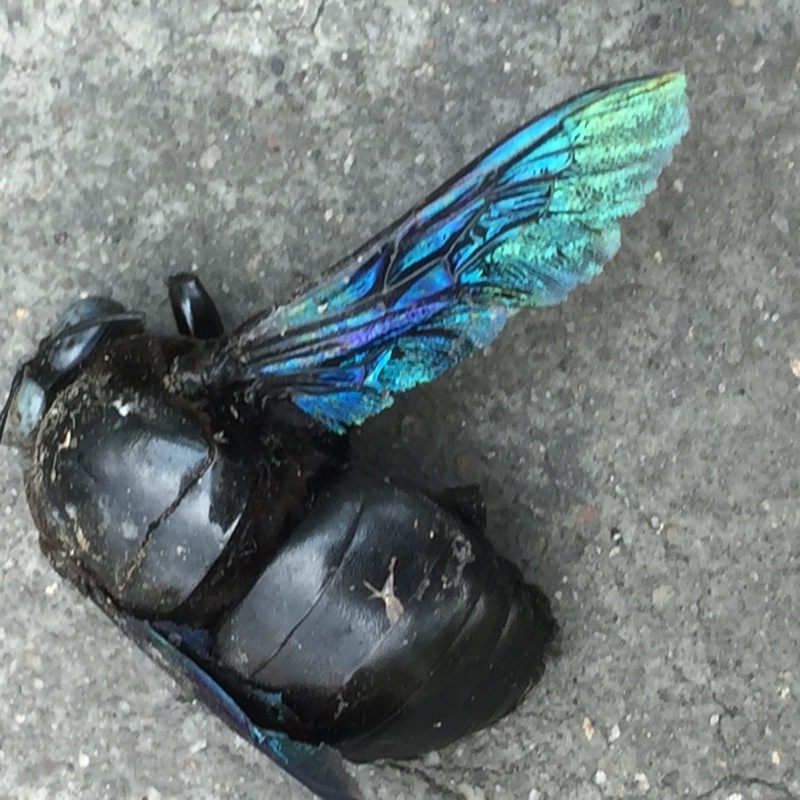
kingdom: Animalia
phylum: Arthropoda
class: Insecta
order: Hymenoptera
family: Apidae
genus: Xylocopa
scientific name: Xylocopa tenuiscapa
